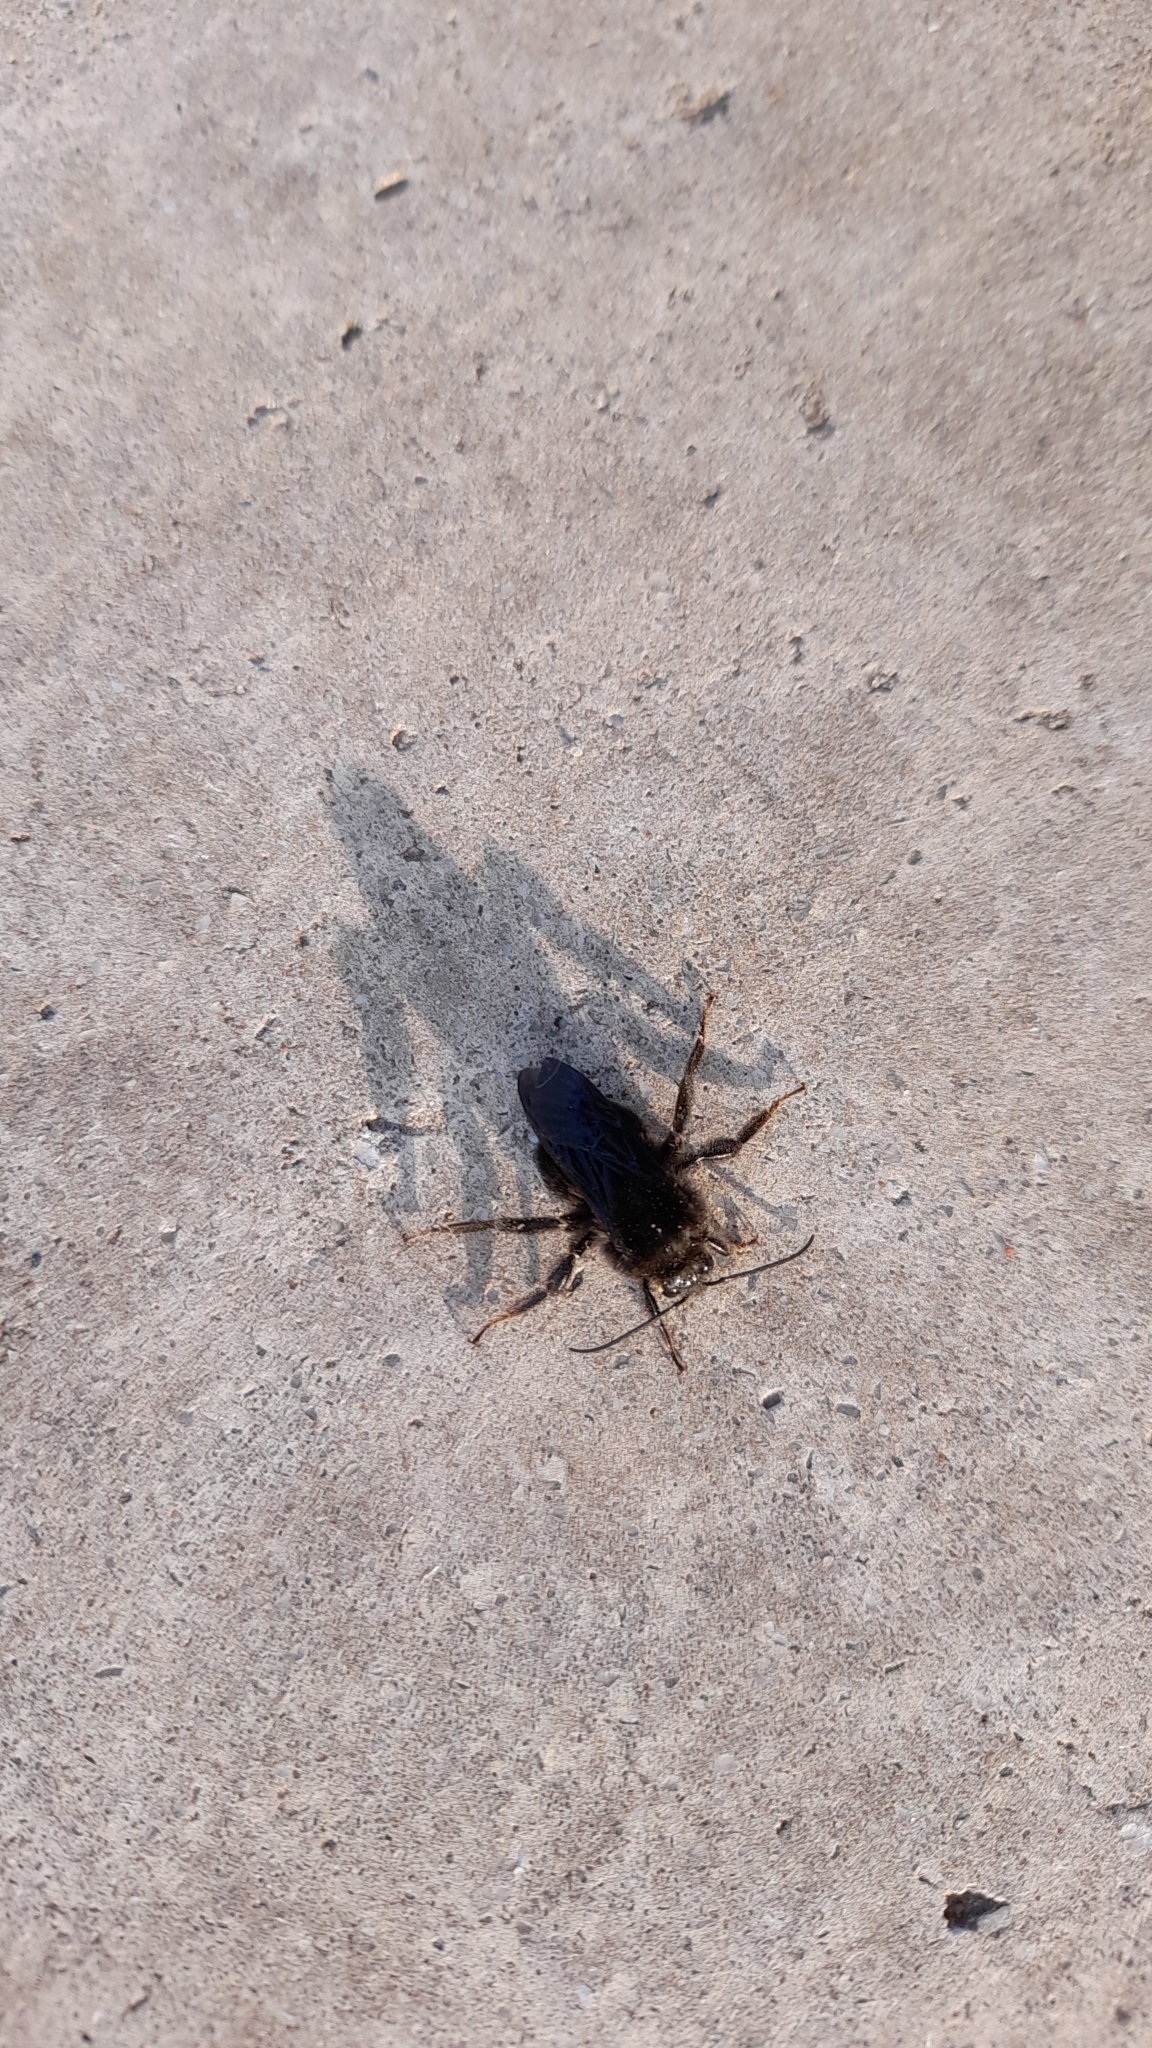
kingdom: Animalia
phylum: Arthropoda
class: Insecta
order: Hymenoptera
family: Apidae
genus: Bombus
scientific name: Bombus pauloensis
